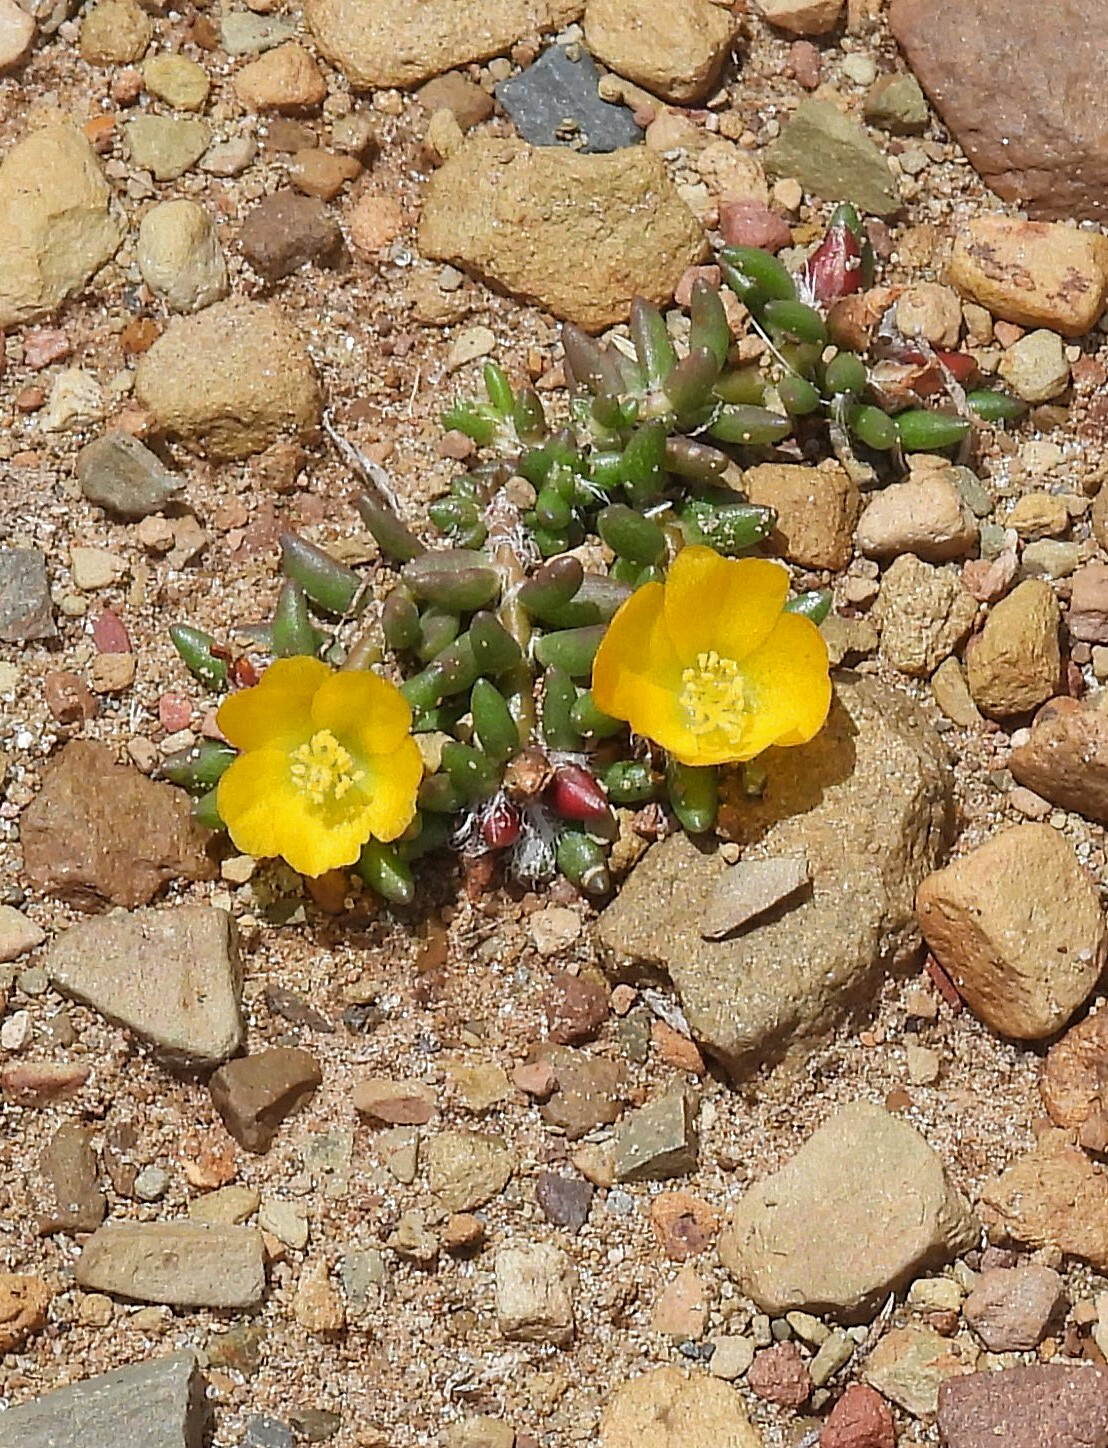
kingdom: Plantae
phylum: Tracheophyta
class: Magnoliopsida
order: Caryophyllales
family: Portulacaceae
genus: Portulaca
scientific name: Portulaca perennis
